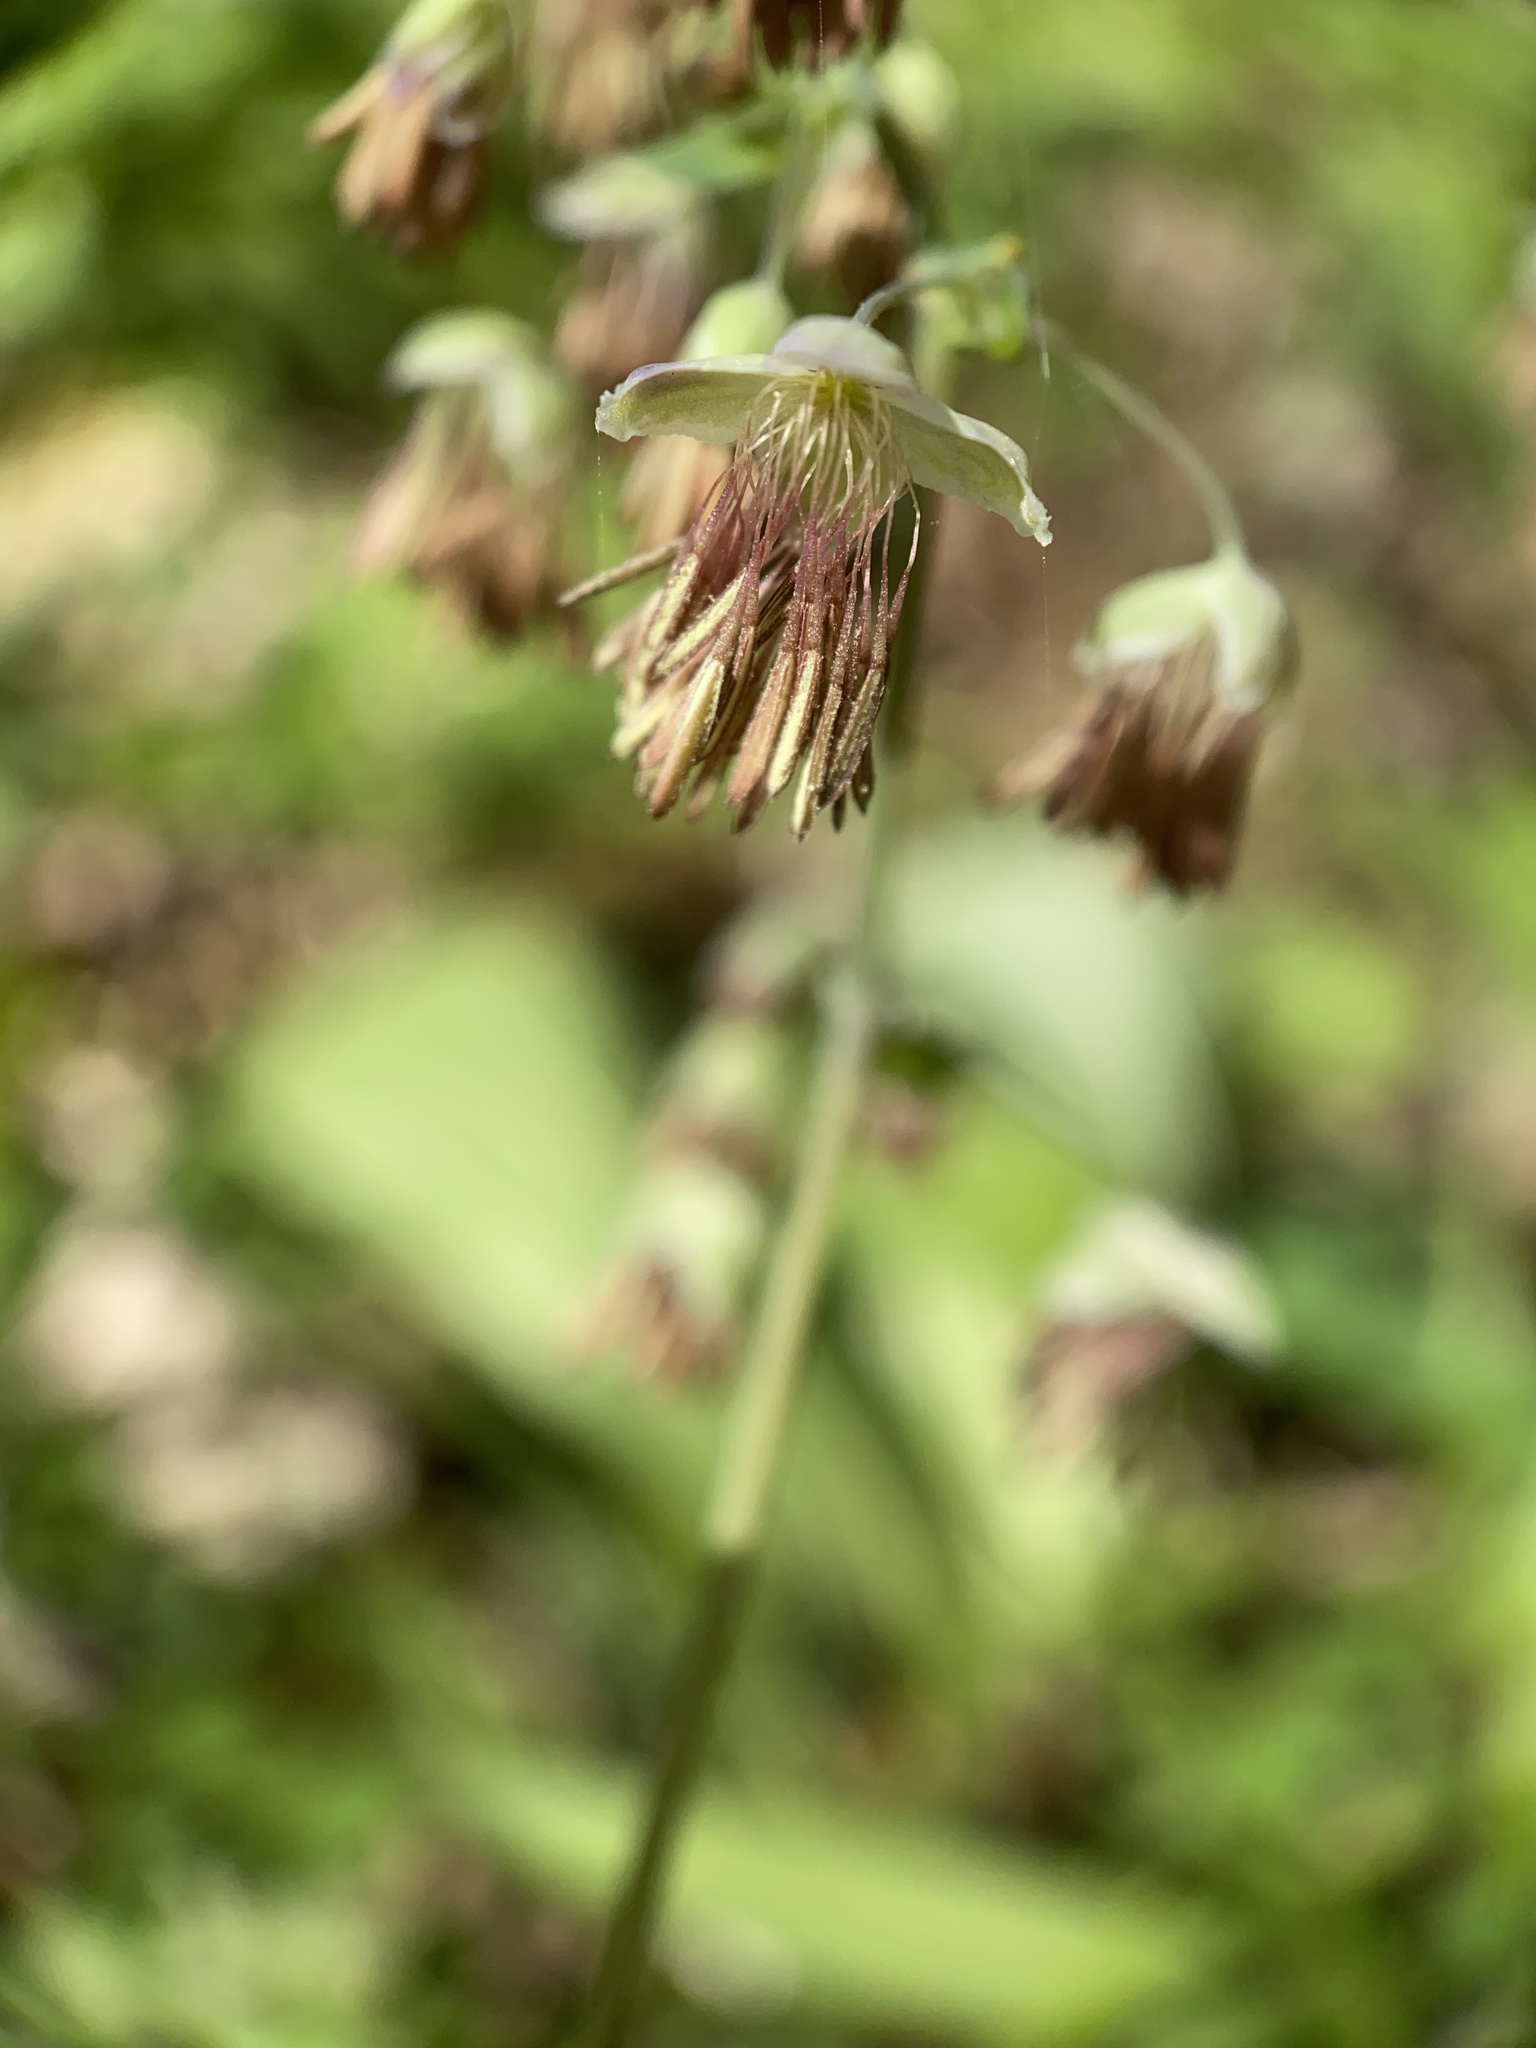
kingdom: Plantae
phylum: Tracheophyta
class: Magnoliopsida
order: Ranunculales
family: Ranunculaceae
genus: Thalictrum
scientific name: Thalictrum dioicum
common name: Early meadow-rue
